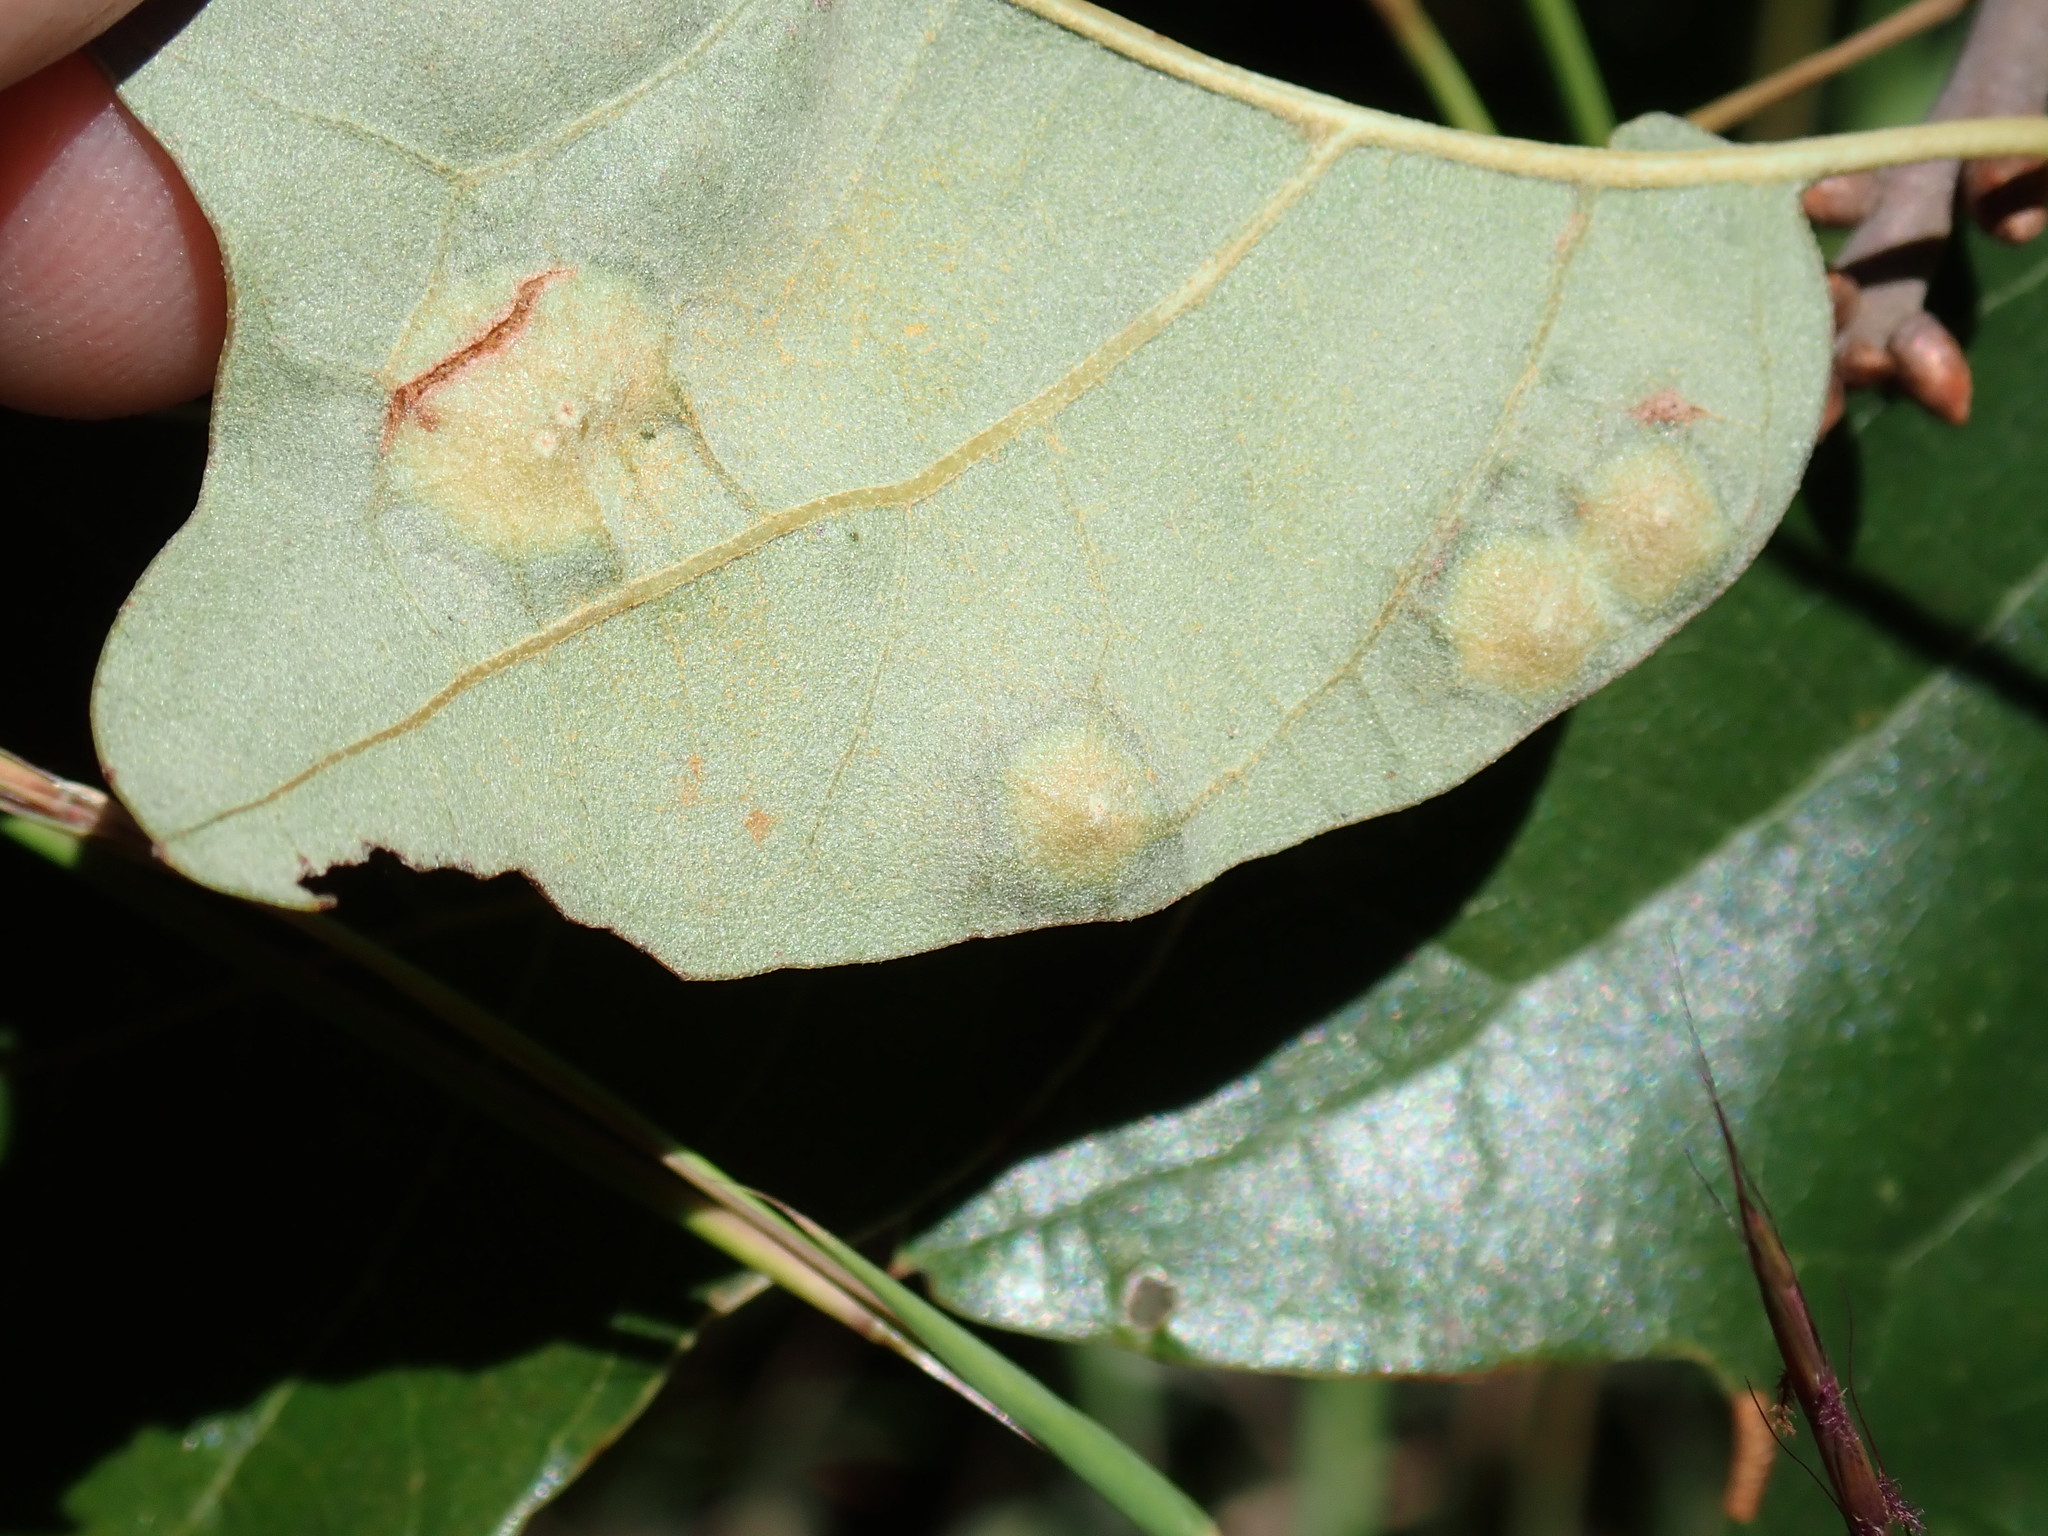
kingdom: Animalia
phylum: Arthropoda
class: Insecta
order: Diptera
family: Cecidomyiidae
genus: Polystepha
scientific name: Polystepha pilulae
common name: Oak leaf gall midge
